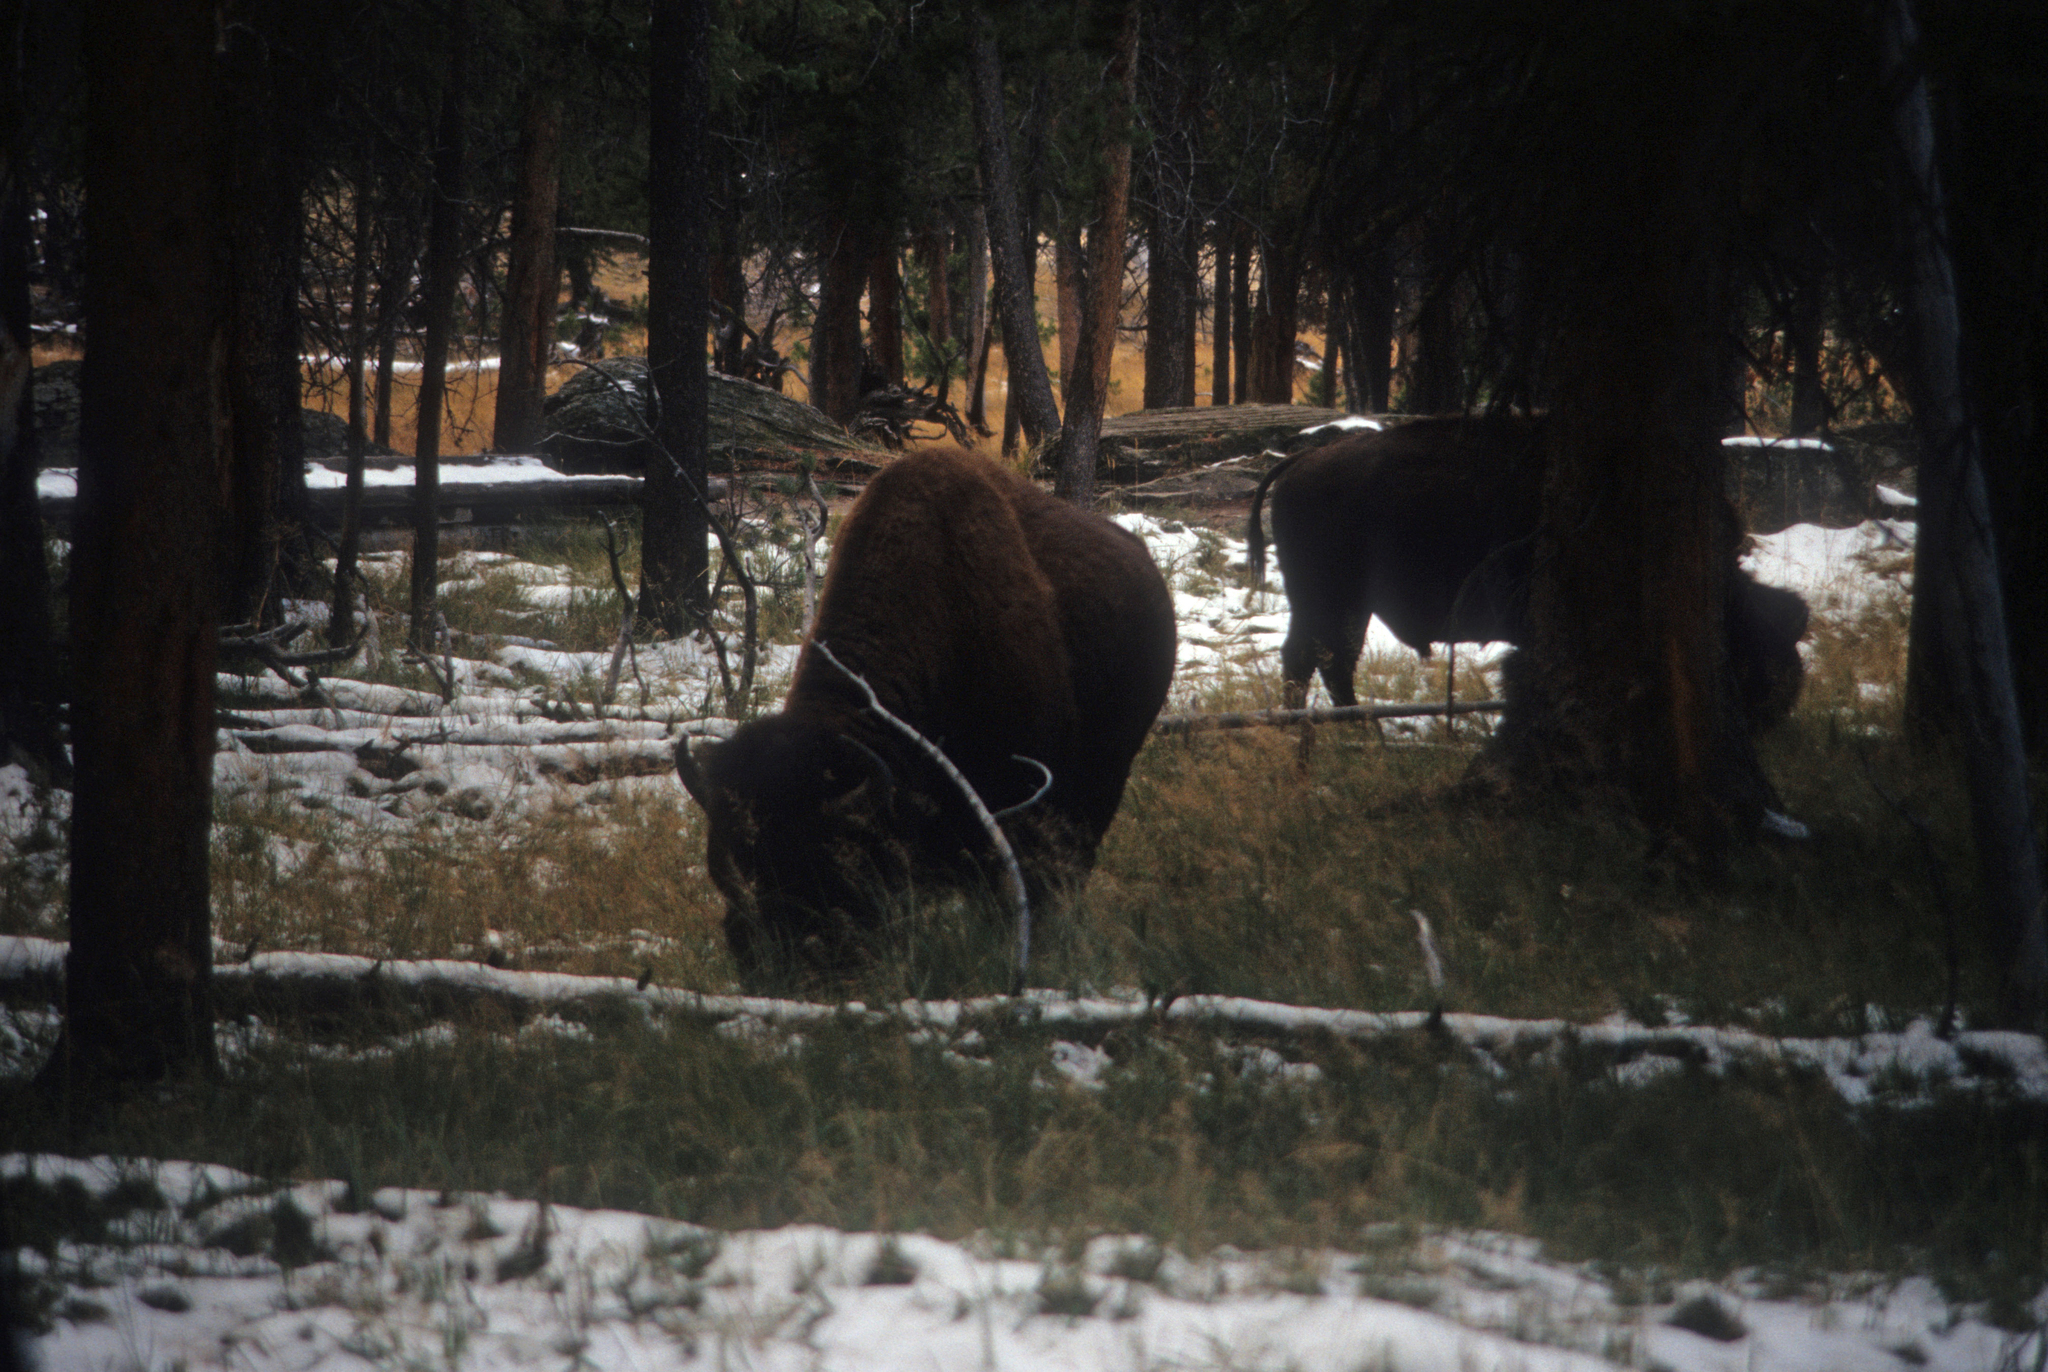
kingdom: Animalia
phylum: Chordata
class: Mammalia
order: Artiodactyla
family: Bovidae
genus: Bison
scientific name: Bison bison
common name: American bison
